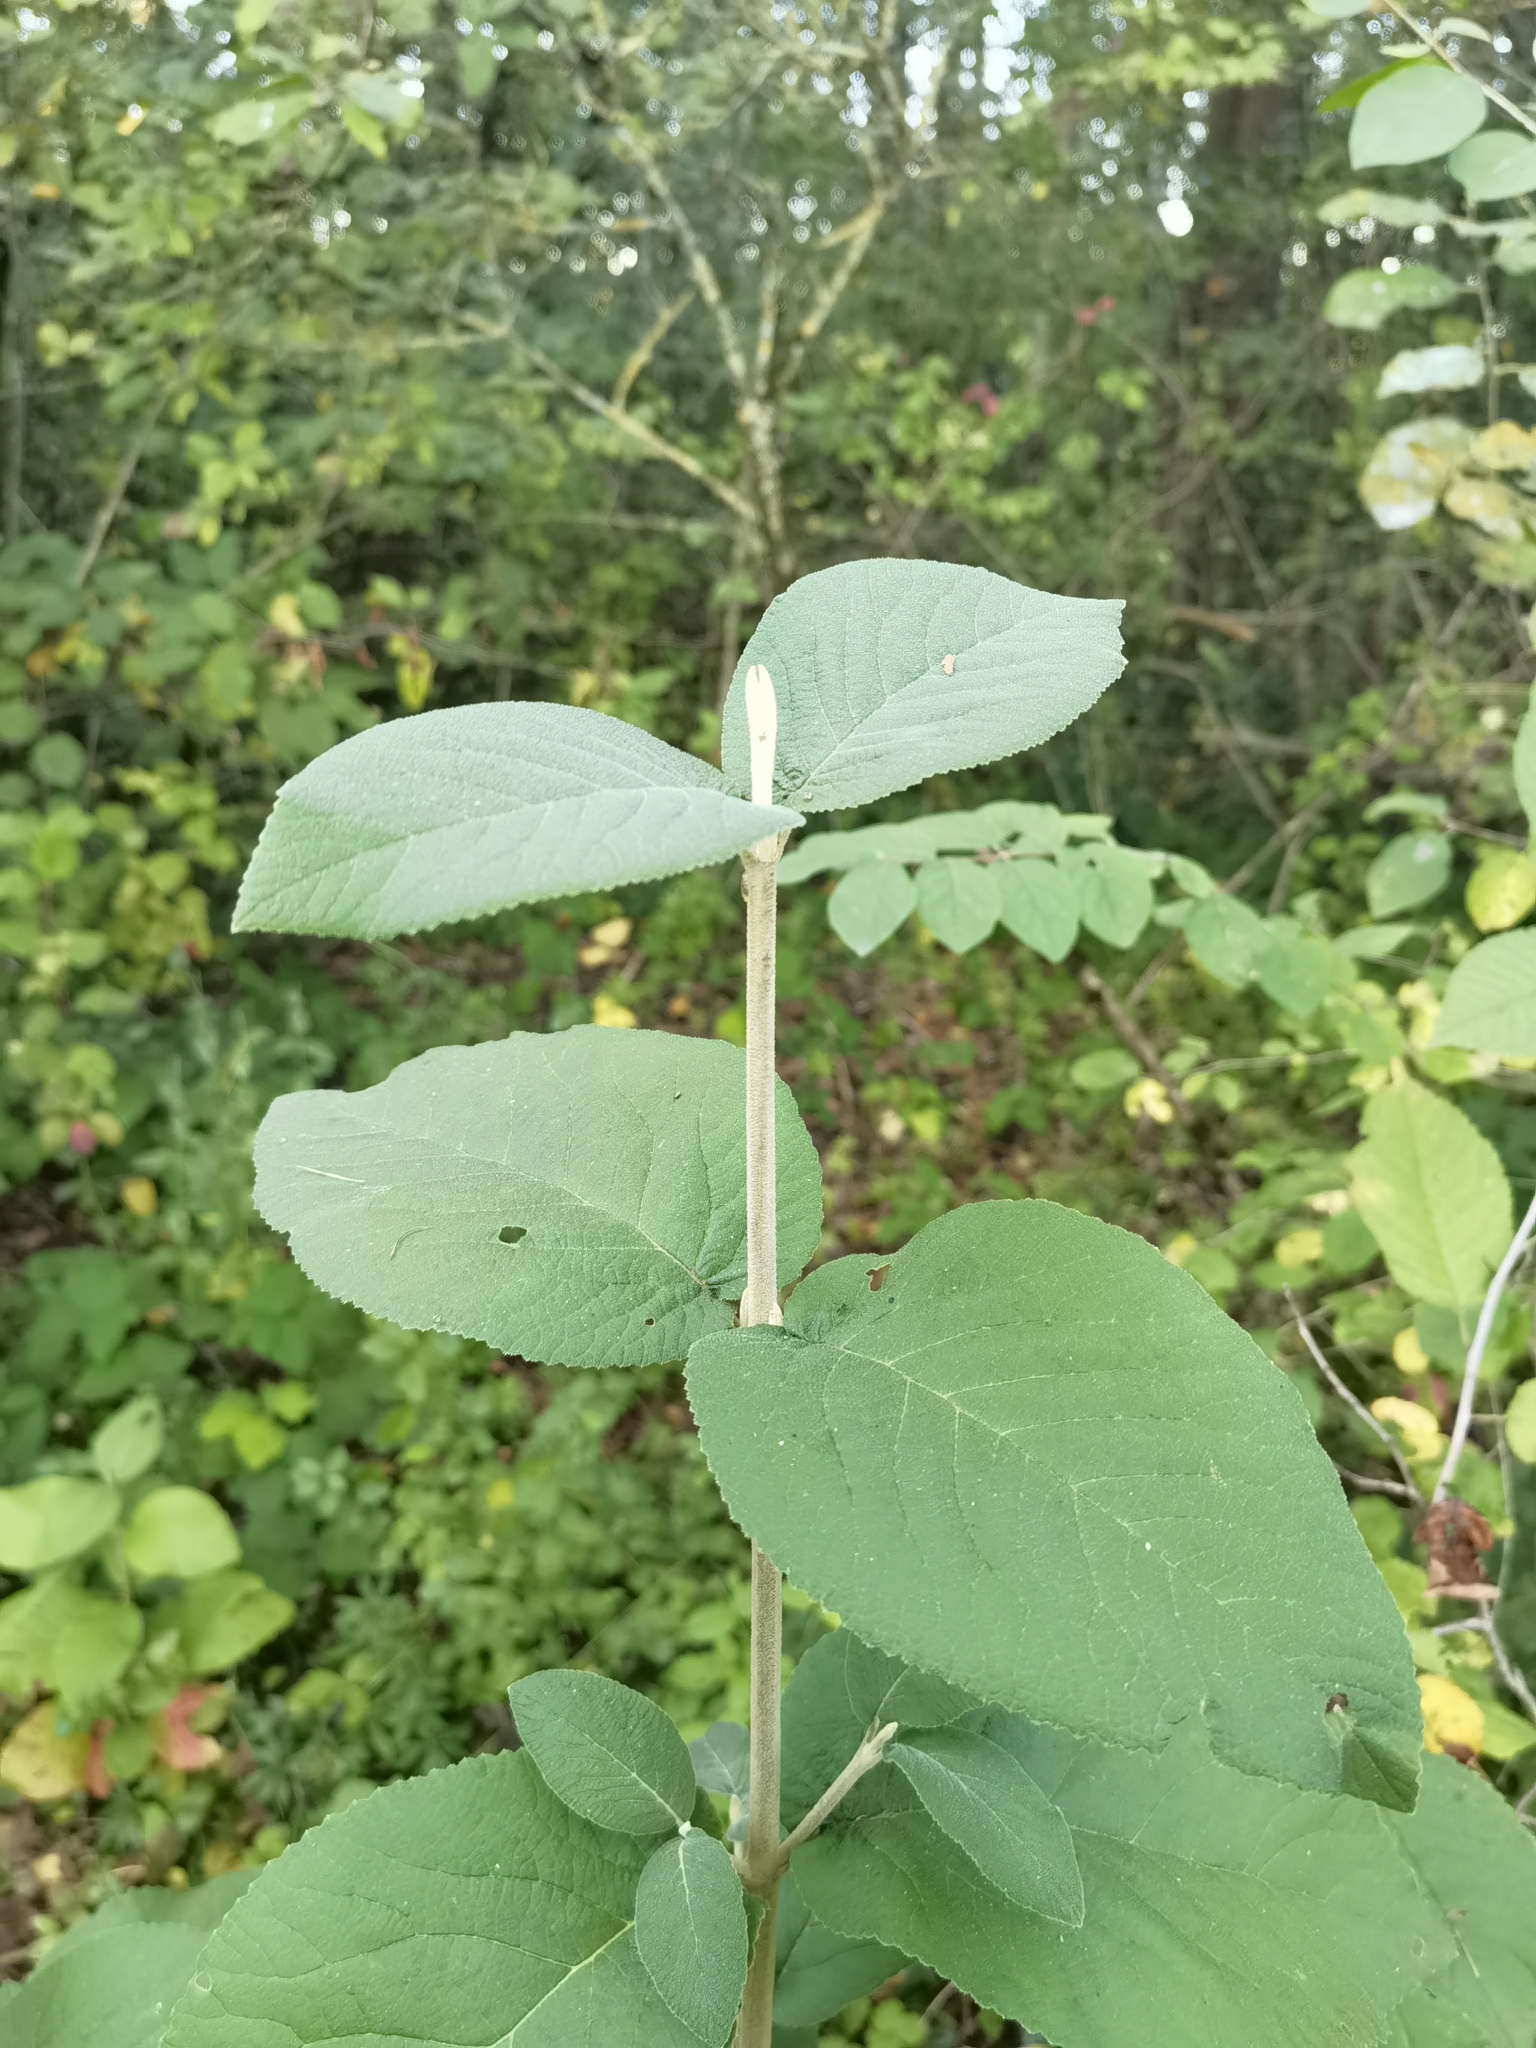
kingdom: Plantae
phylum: Tracheophyta
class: Magnoliopsida
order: Dipsacales
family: Viburnaceae
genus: Viburnum
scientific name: Viburnum lantana
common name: Wayfaring tree
